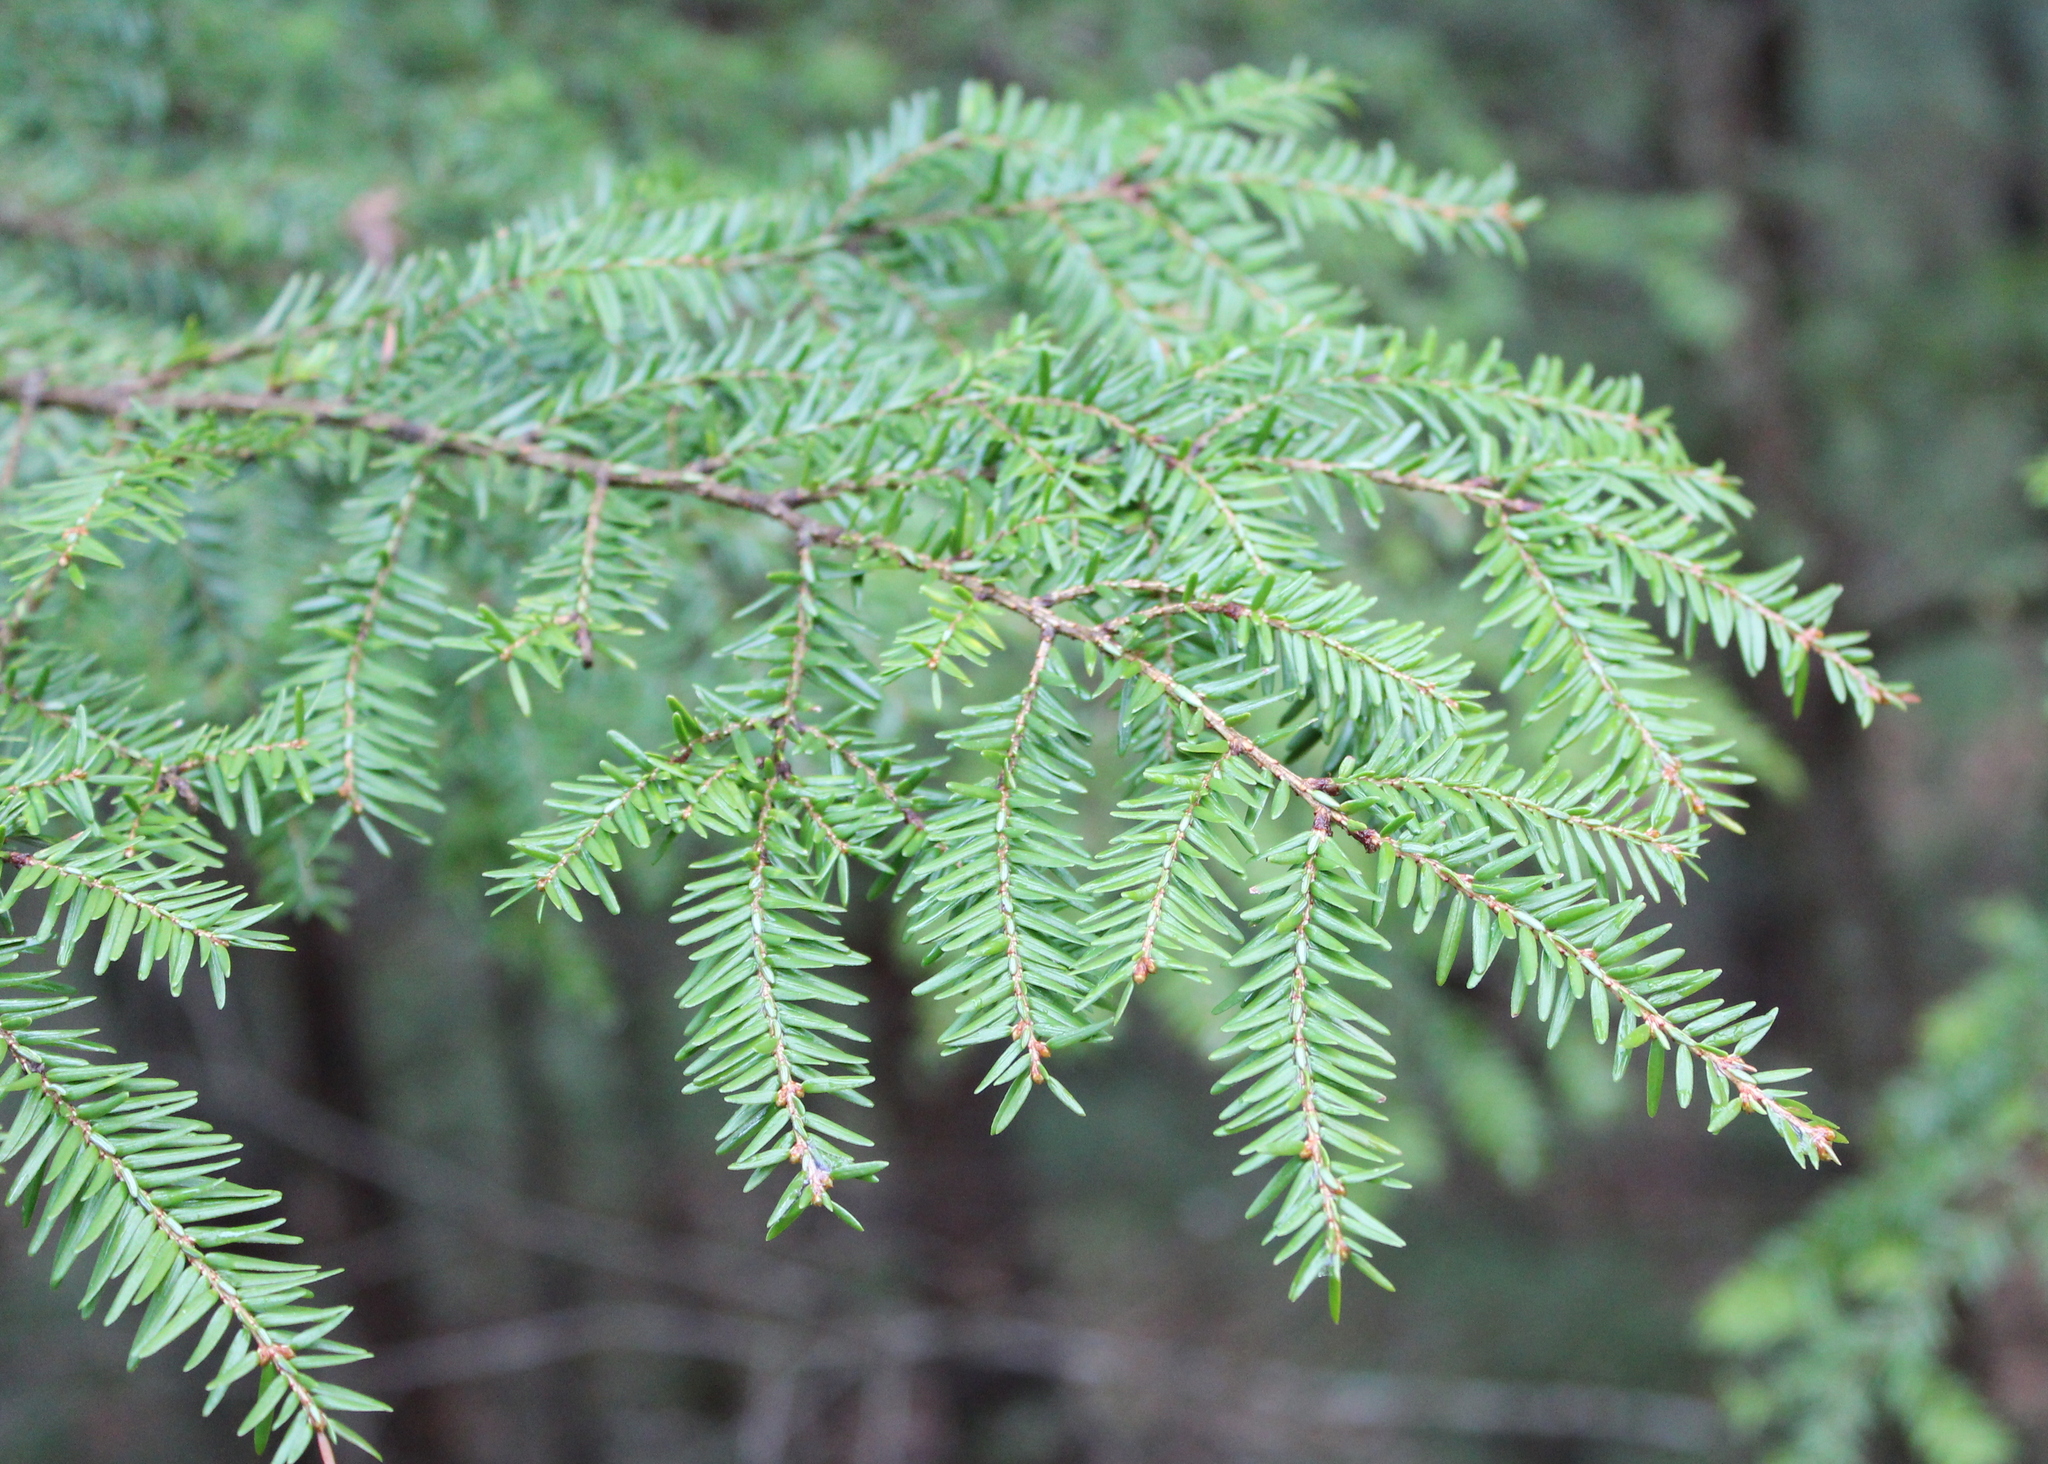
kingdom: Plantae
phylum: Tracheophyta
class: Pinopsida
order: Pinales
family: Pinaceae
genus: Tsuga
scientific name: Tsuga canadensis
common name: Eastern hemlock
